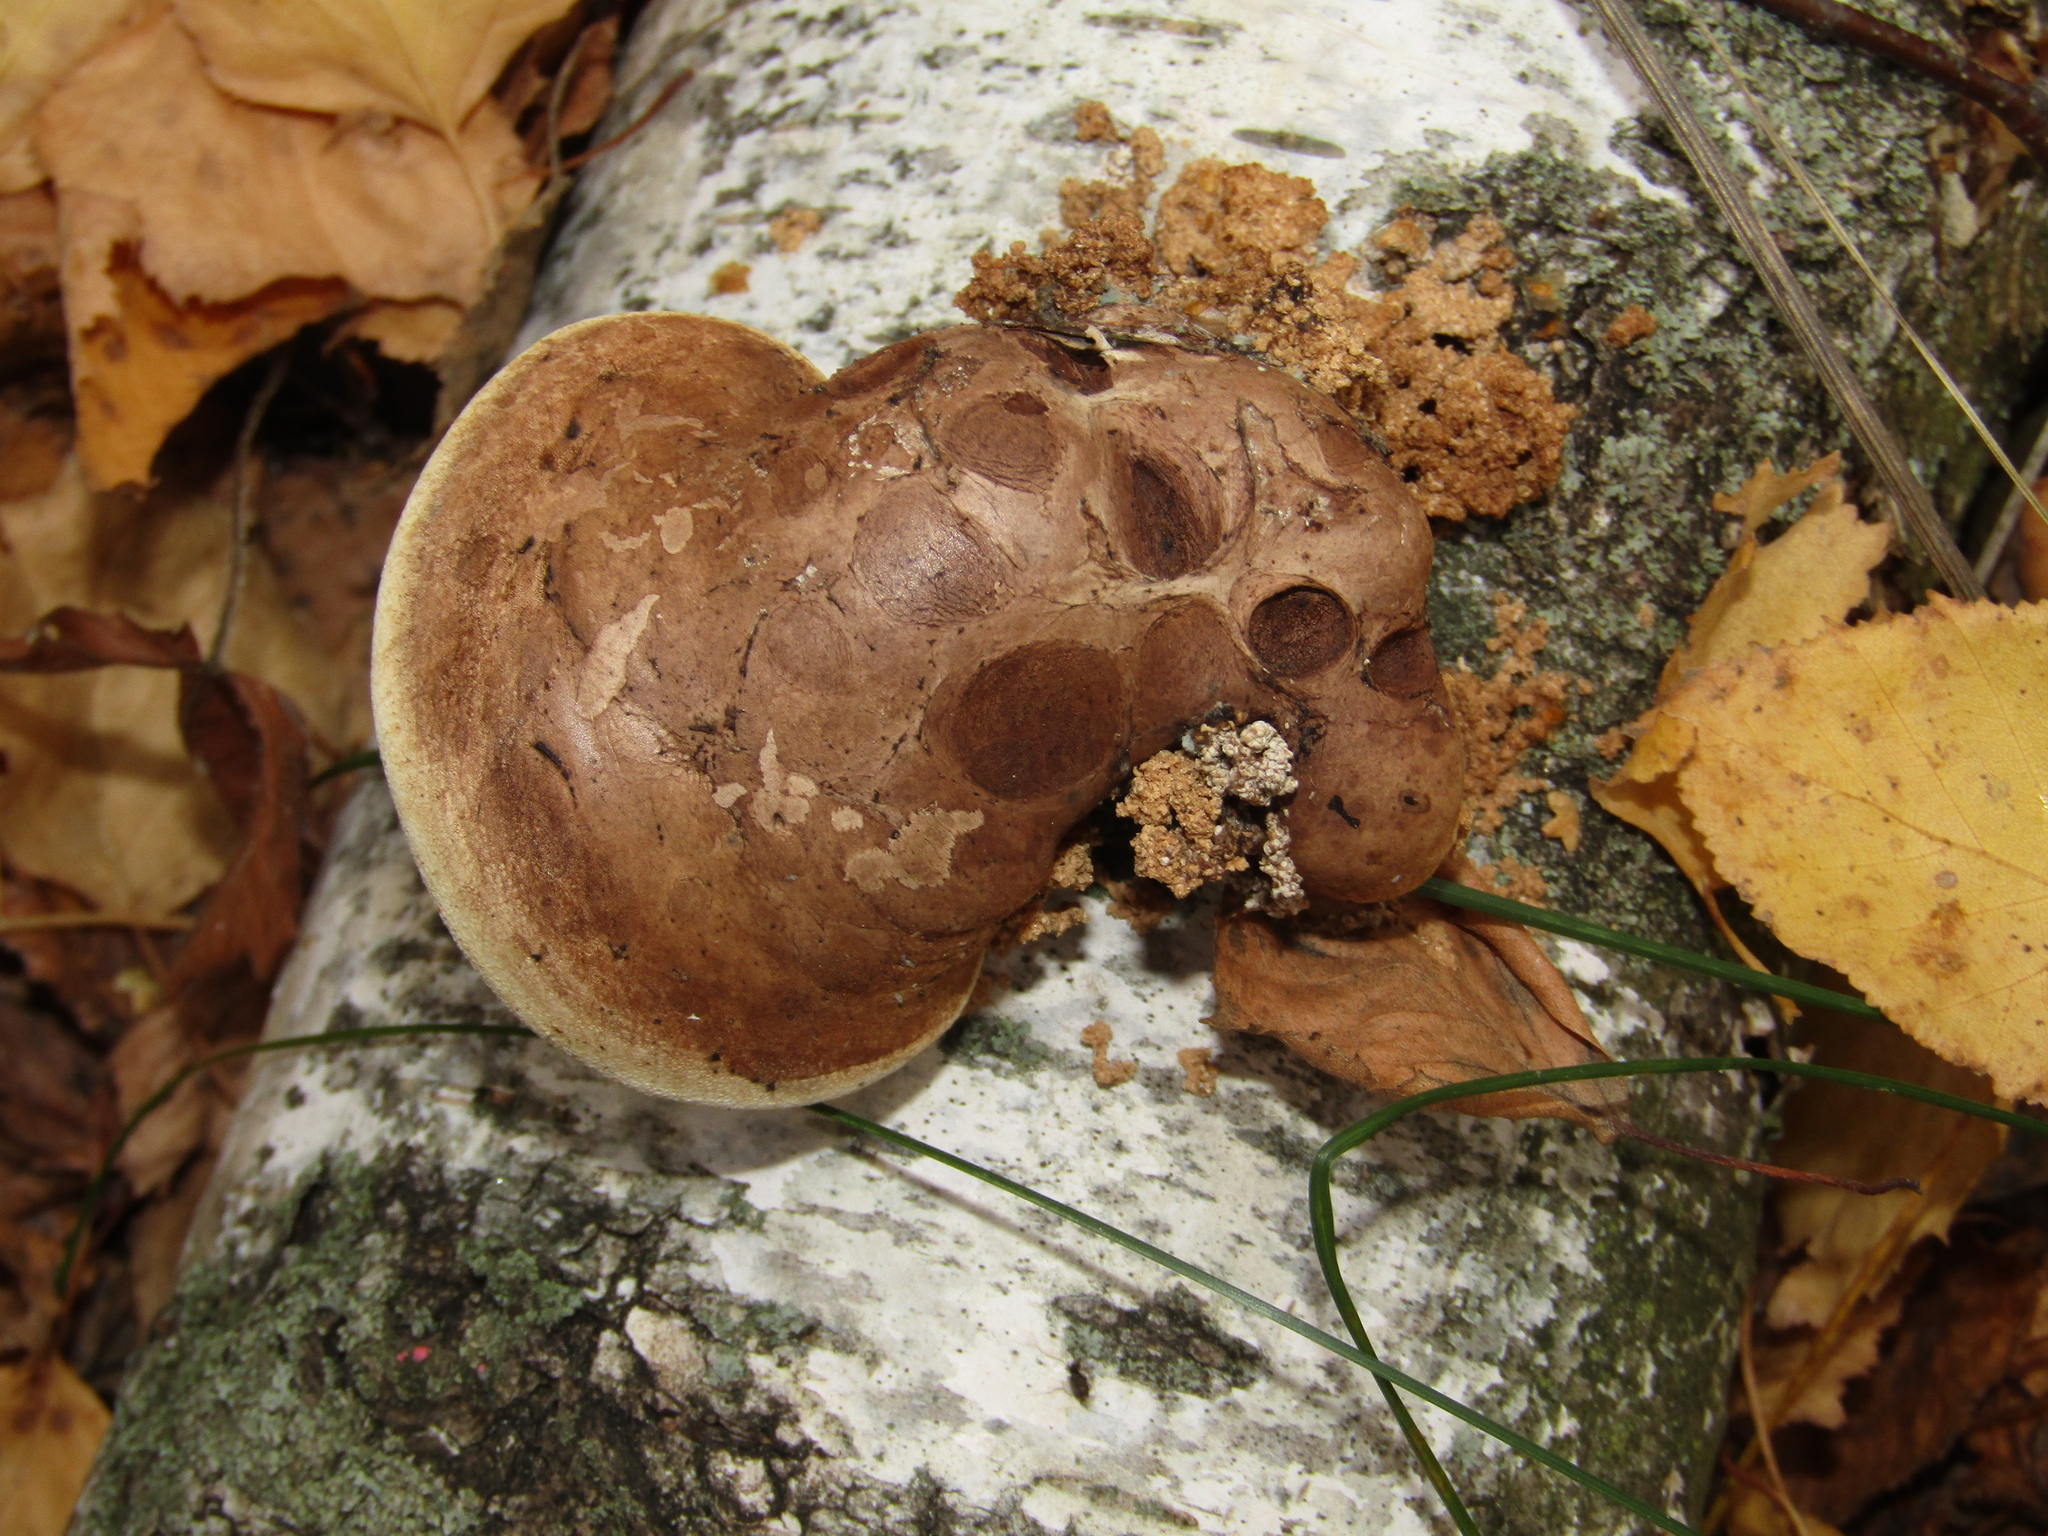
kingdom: Fungi
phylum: Basidiomycota
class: Agaricomycetes
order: Polyporales
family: Fomitopsidaceae
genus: Fomitopsis
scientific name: Fomitopsis betulina
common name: Birch polypore
